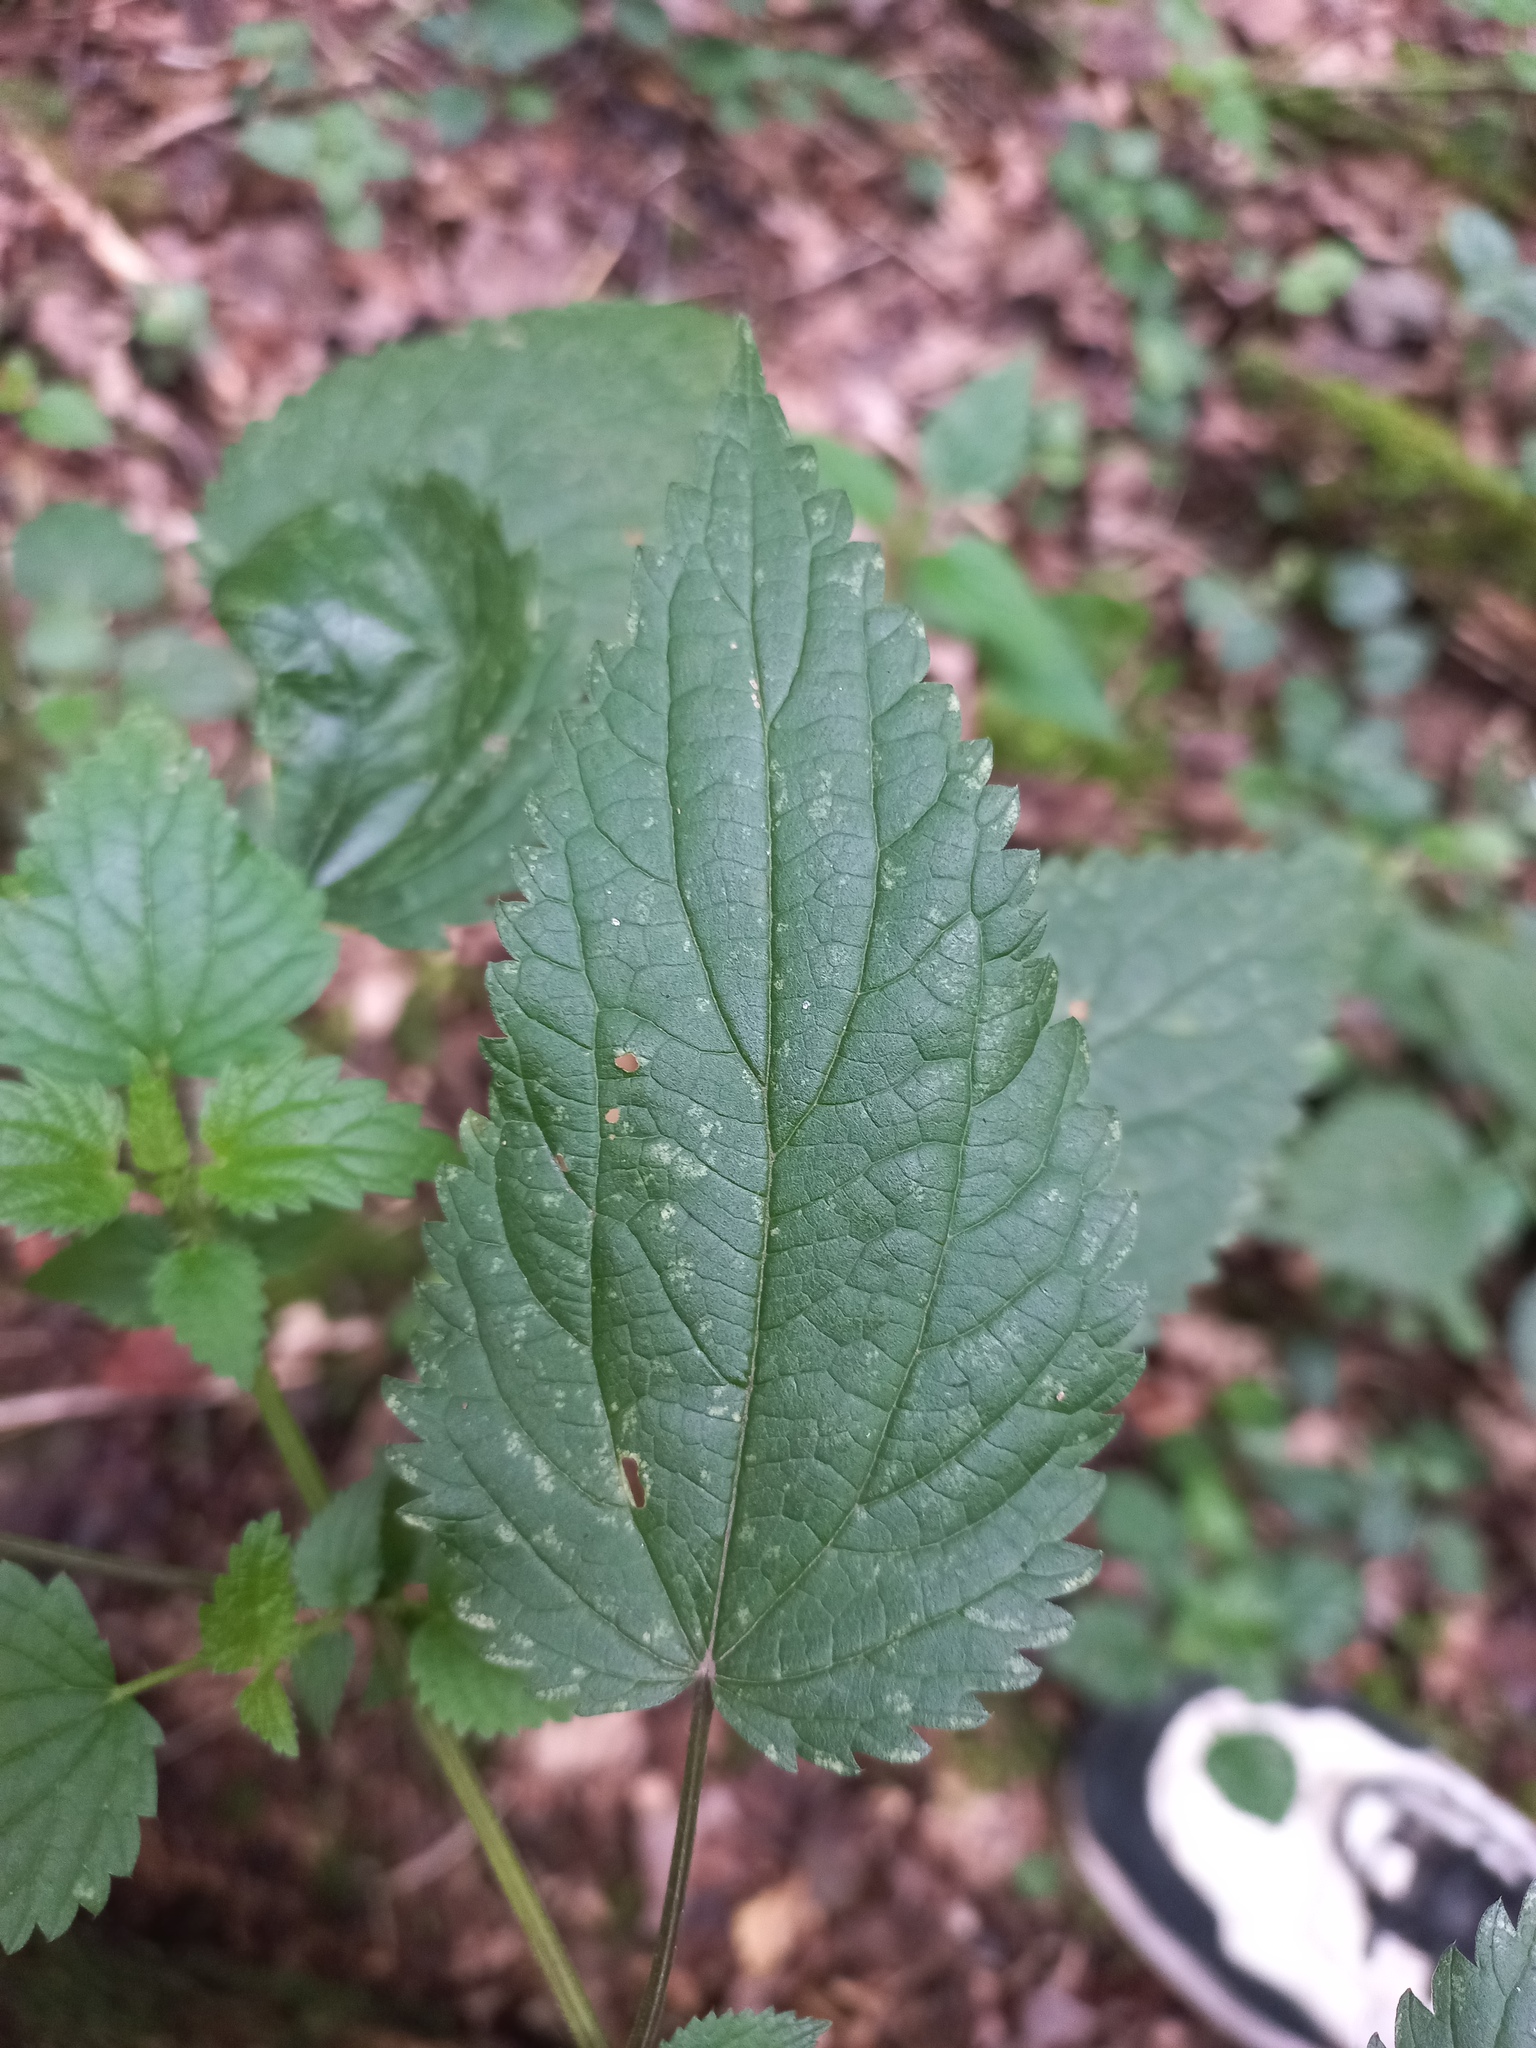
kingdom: Plantae
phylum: Tracheophyta
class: Magnoliopsida
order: Rosales
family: Urticaceae
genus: Urtica
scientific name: Urtica dioica
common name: Common nettle
